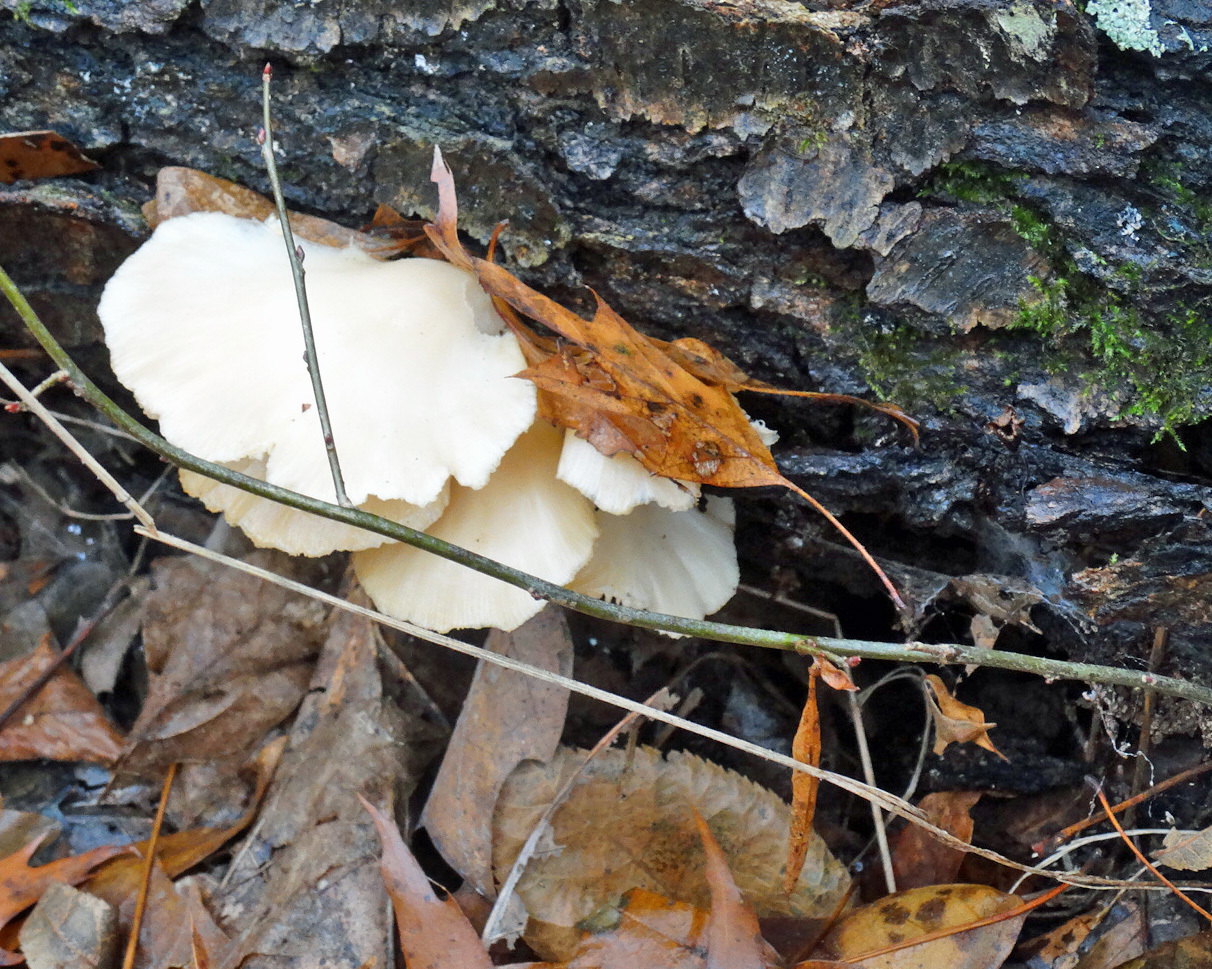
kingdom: Fungi
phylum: Basidiomycota
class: Agaricomycetes
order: Agaricales
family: Pleurotaceae
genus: Pleurotus
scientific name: Pleurotus ostreatus
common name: Oyster mushroom
